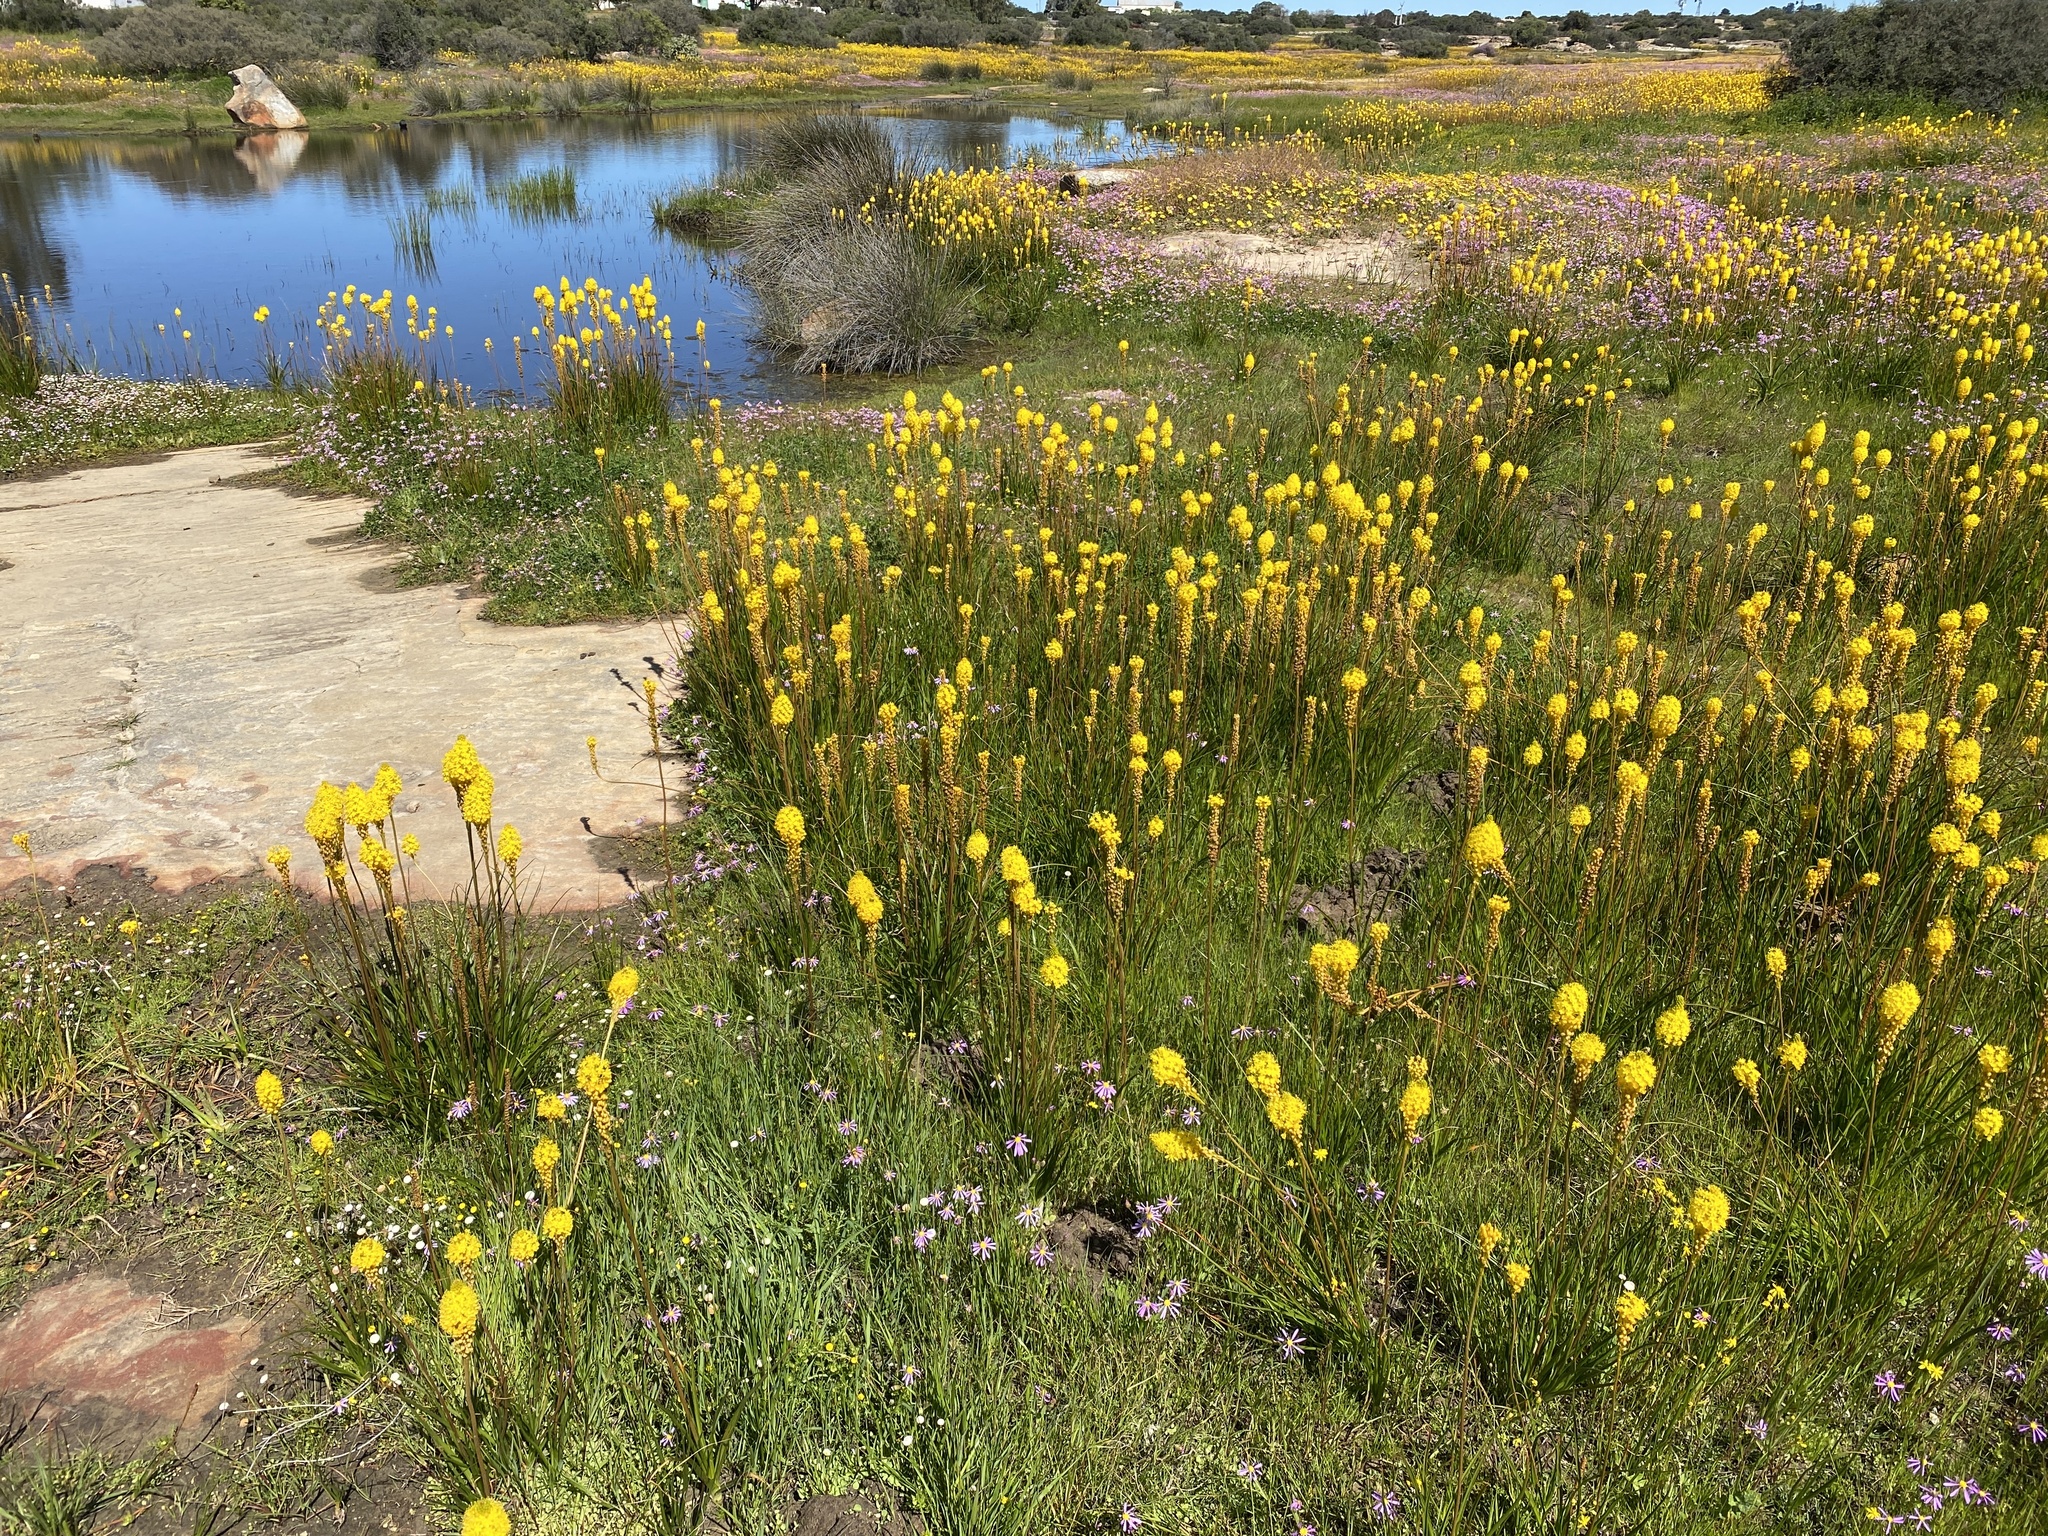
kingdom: Plantae
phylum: Tracheophyta
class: Liliopsida
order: Asparagales
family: Asphodelaceae
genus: Bulbinella
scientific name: Bulbinella nutans
